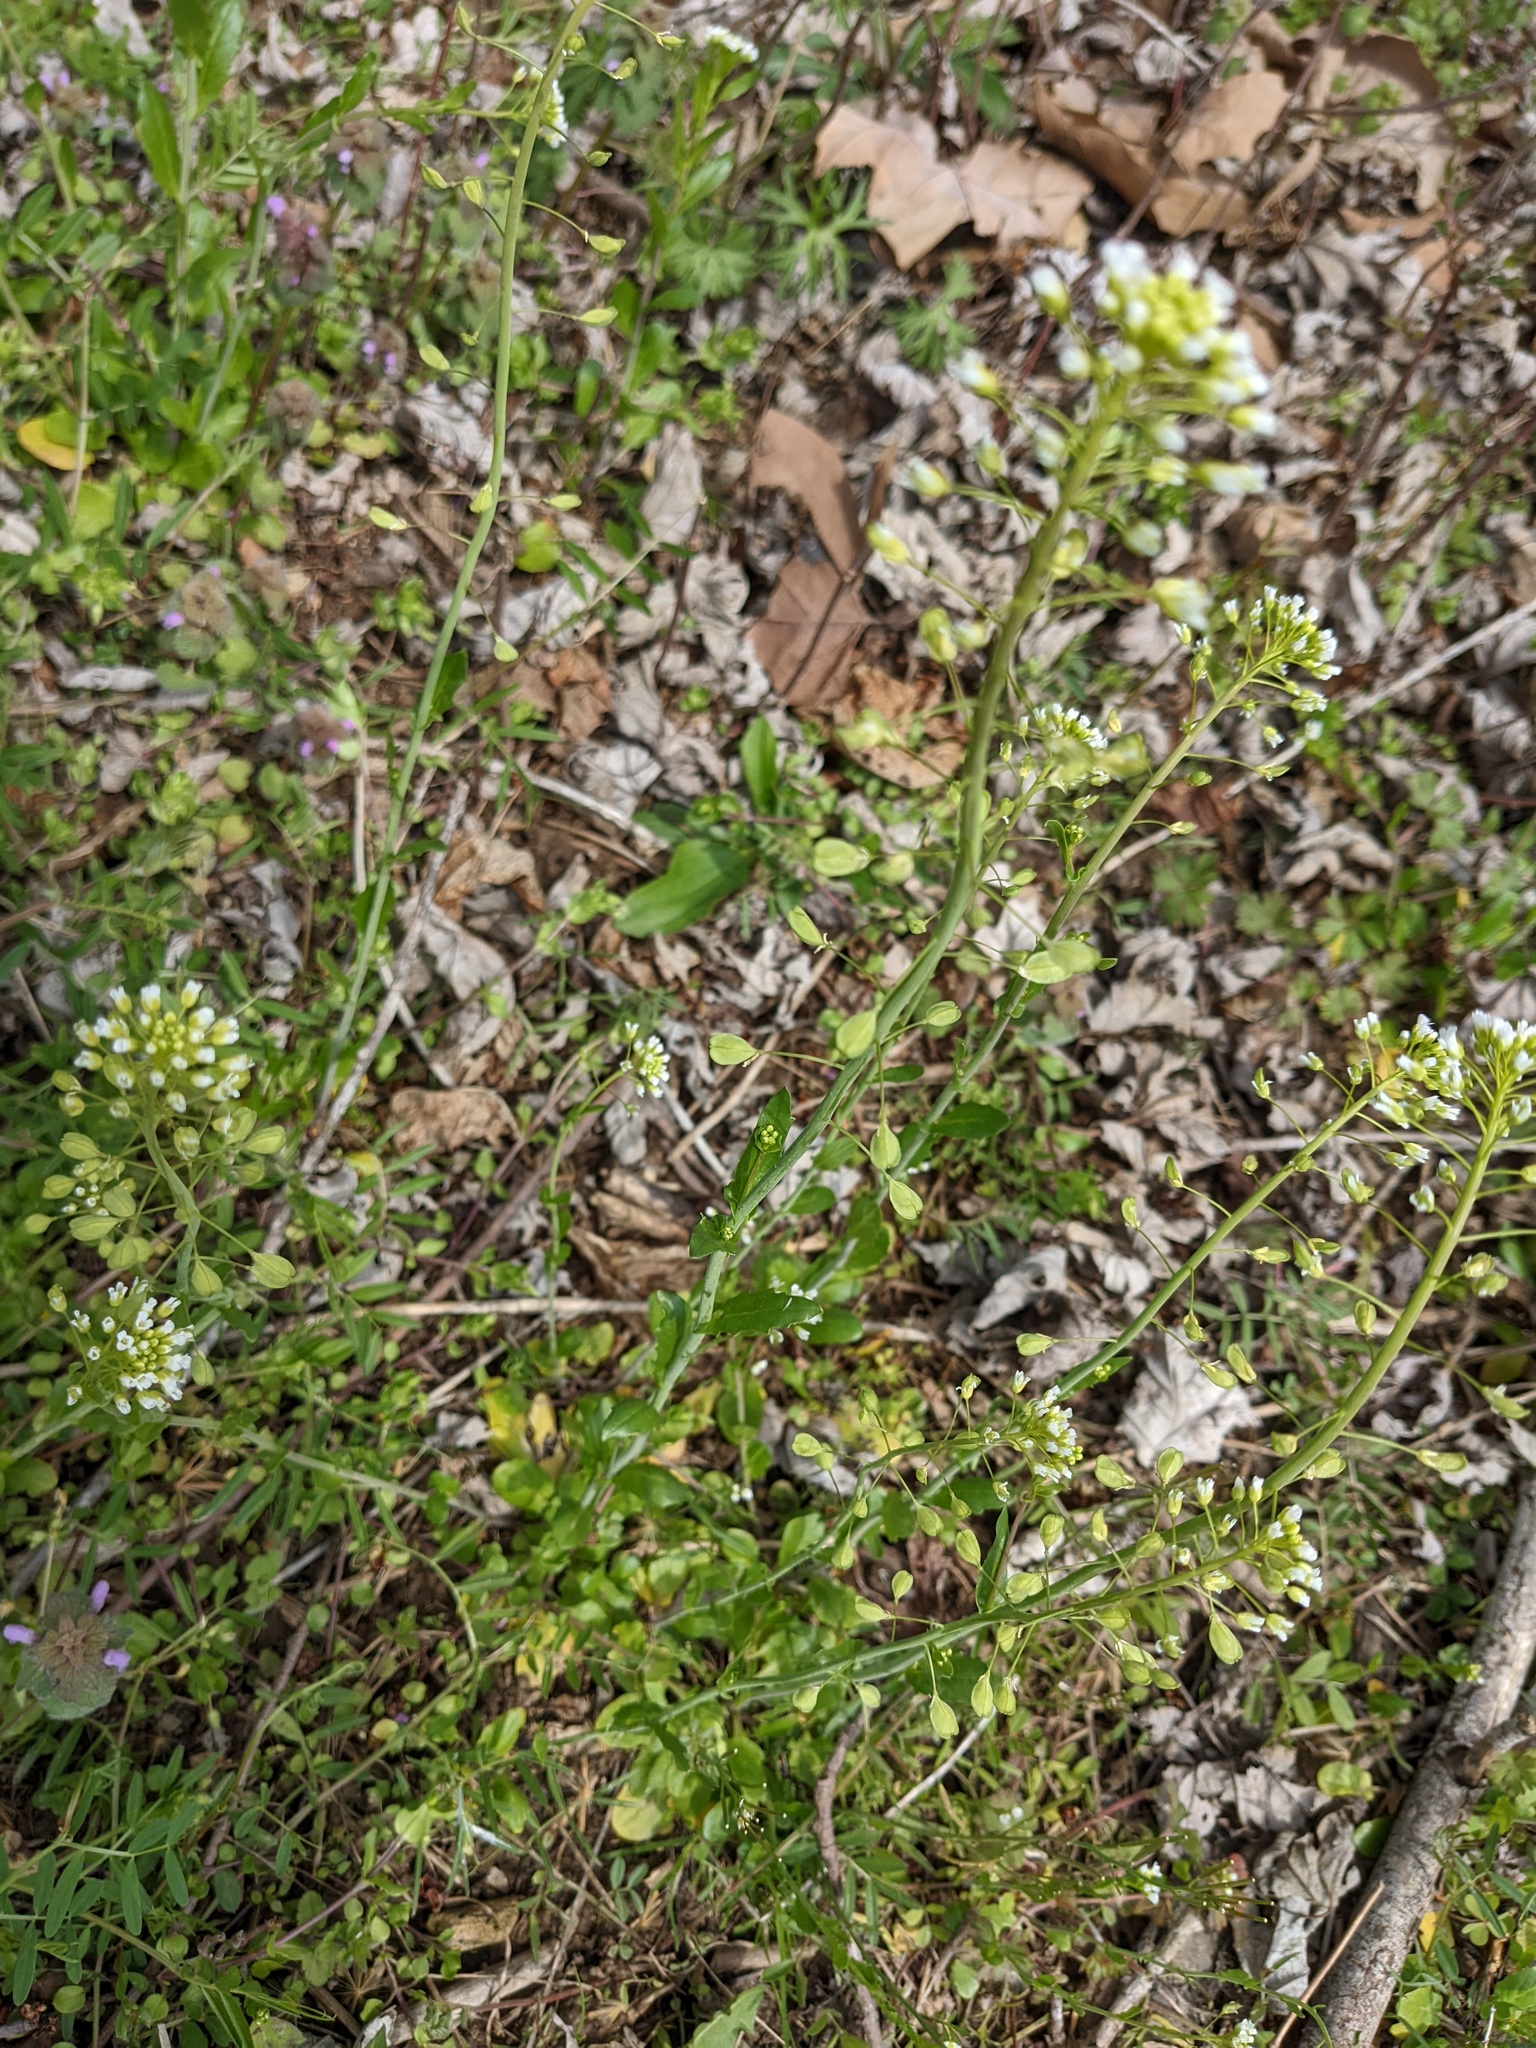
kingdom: Plantae
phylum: Tracheophyta
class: Magnoliopsida
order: Brassicales
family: Brassicaceae
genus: Mummenhoffia
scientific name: Mummenhoffia alliacea
